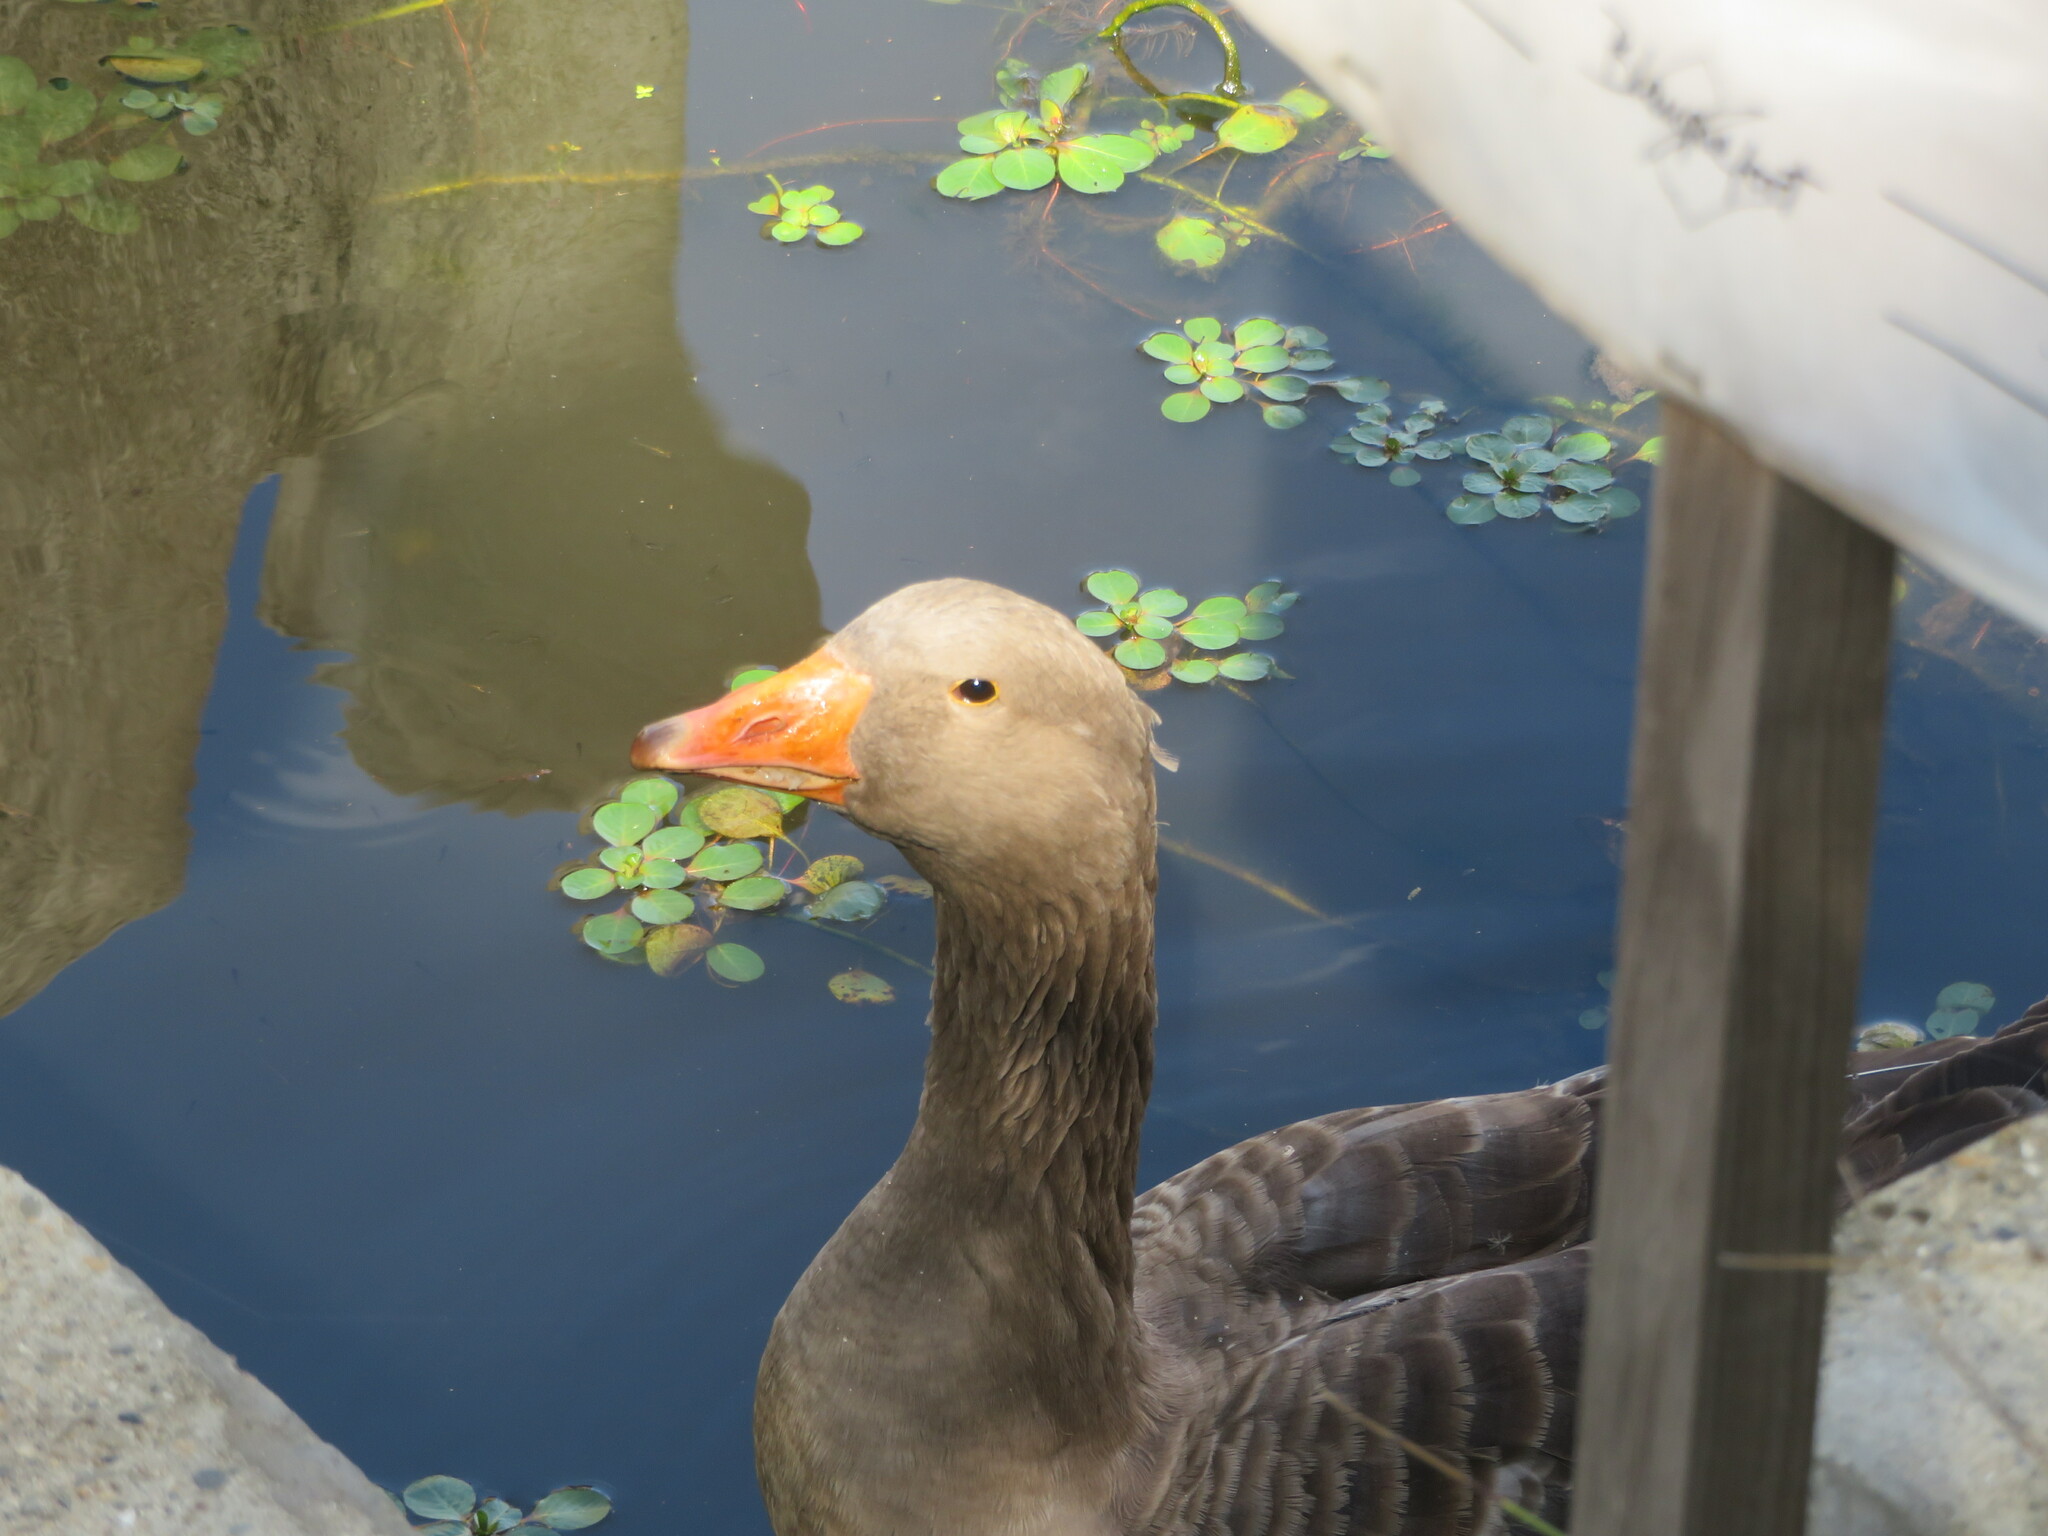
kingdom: Animalia
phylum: Chordata
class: Aves
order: Anseriformes
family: Anatidae
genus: Anser
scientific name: Anser anser
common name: Greylag goose
